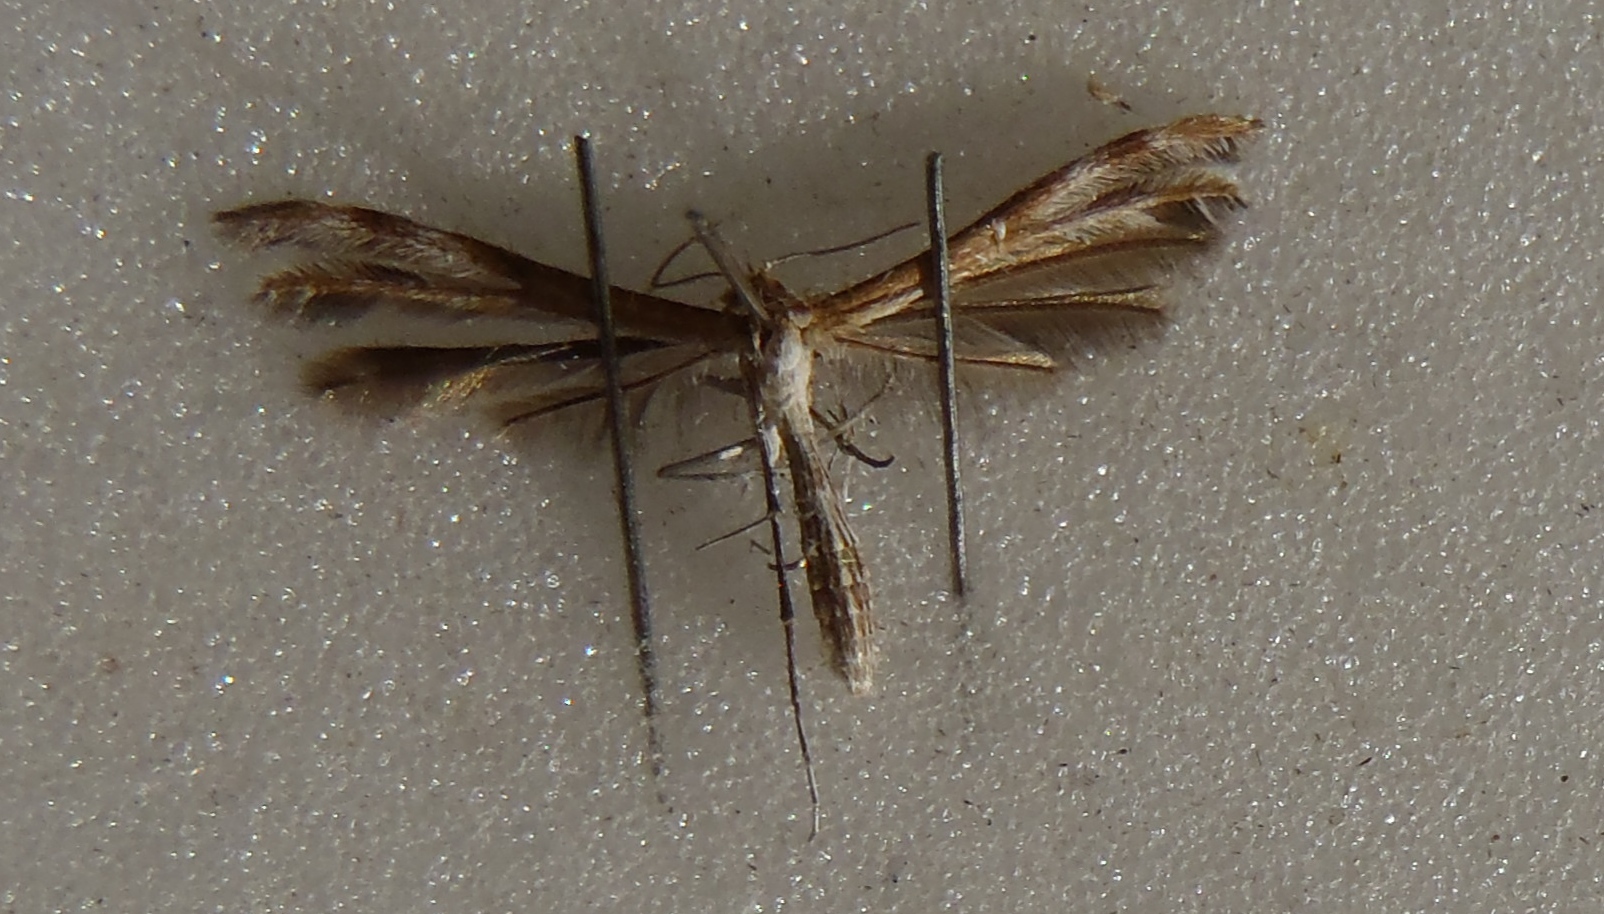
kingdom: Animalia
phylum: Arthropoda
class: Insecta
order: Lepidoptera
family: Pterophoridae
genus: Stangeia
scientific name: Stangeia xerodes
